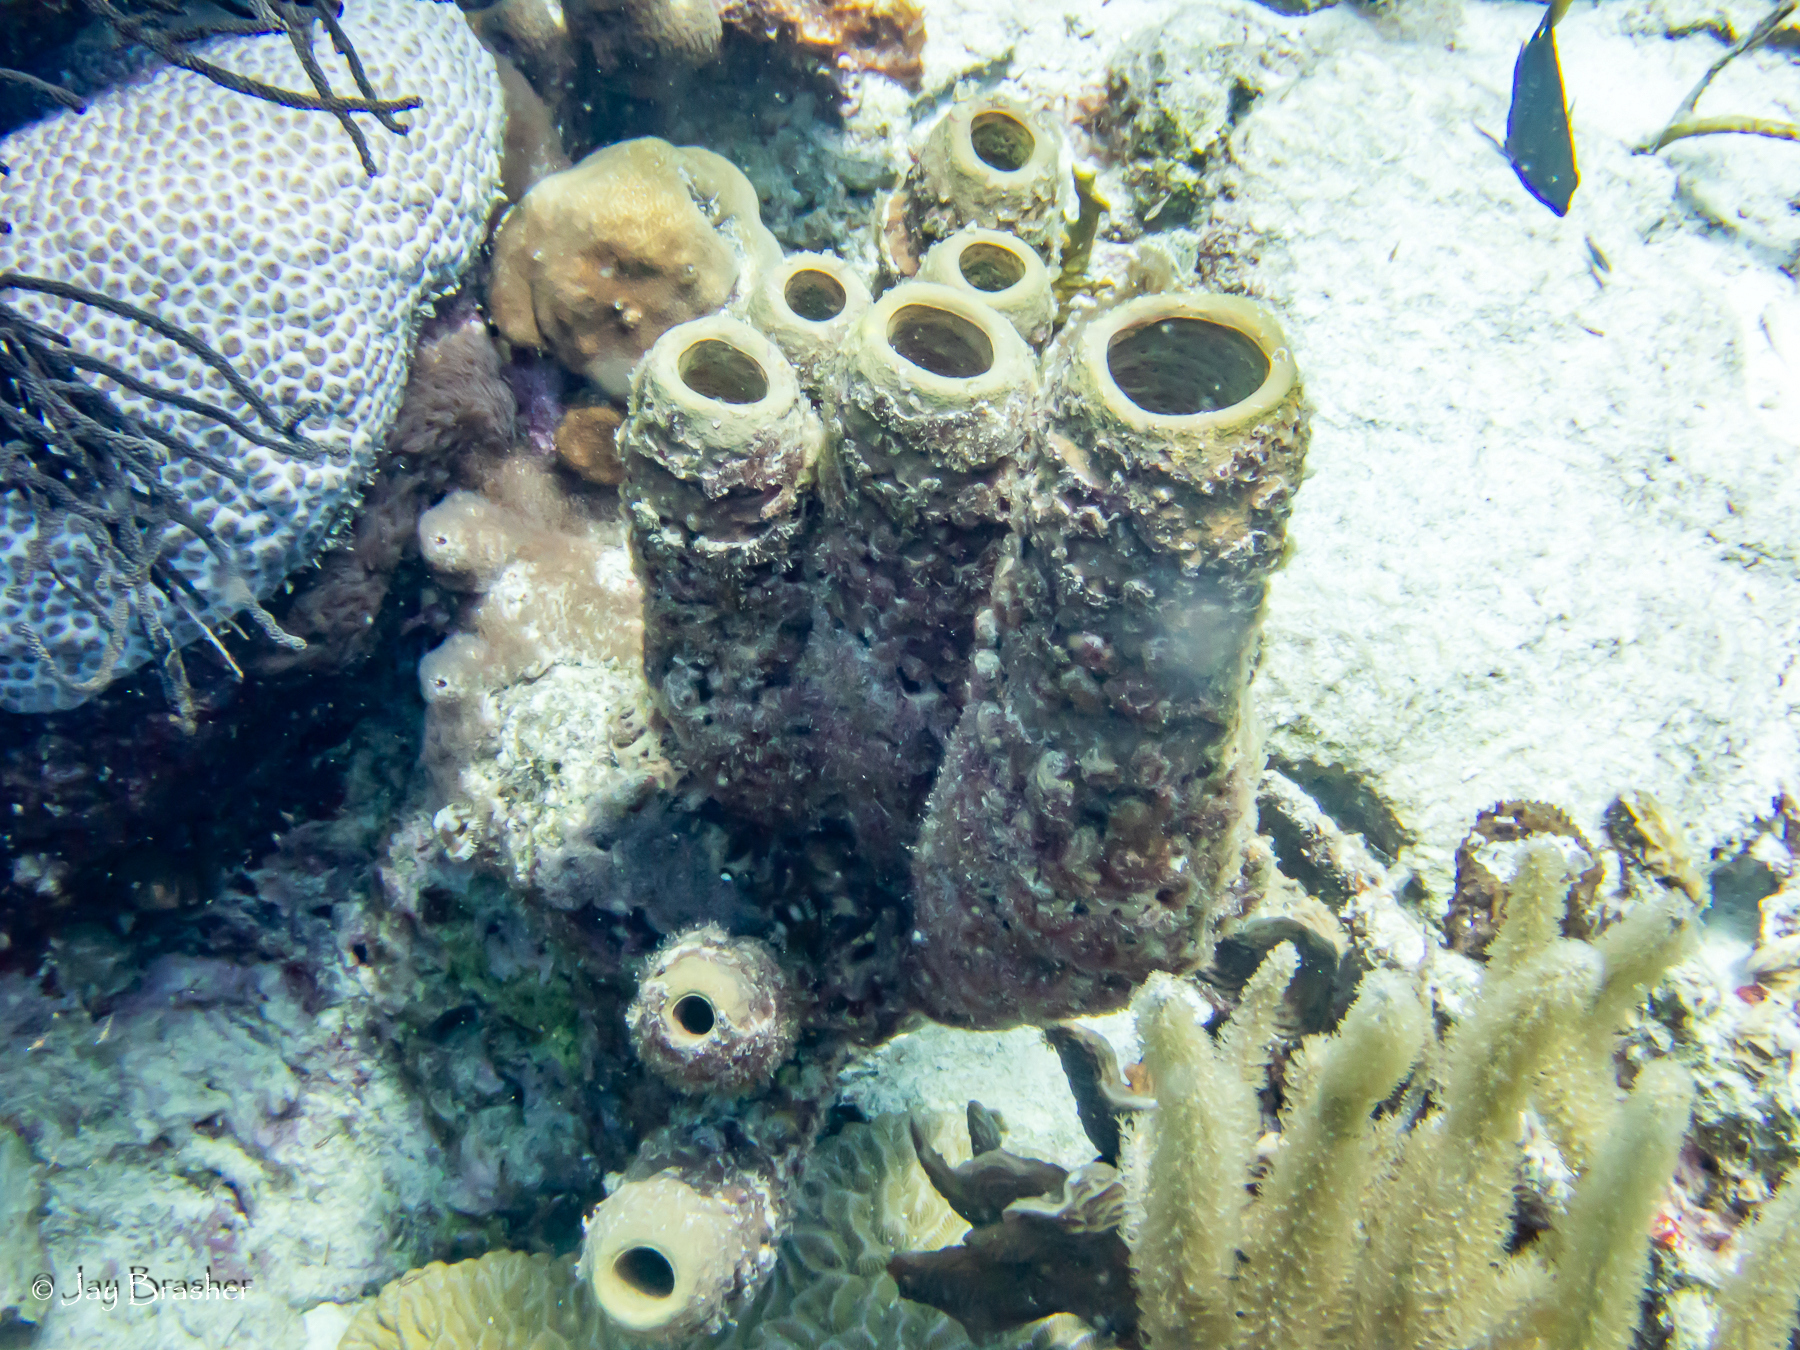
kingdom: Animalia
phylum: Porifera
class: Demospongiae
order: Verongiida
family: Aplysinidae
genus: Aplysina
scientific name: Aplysina archeri
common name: Stove-pipe sponge
